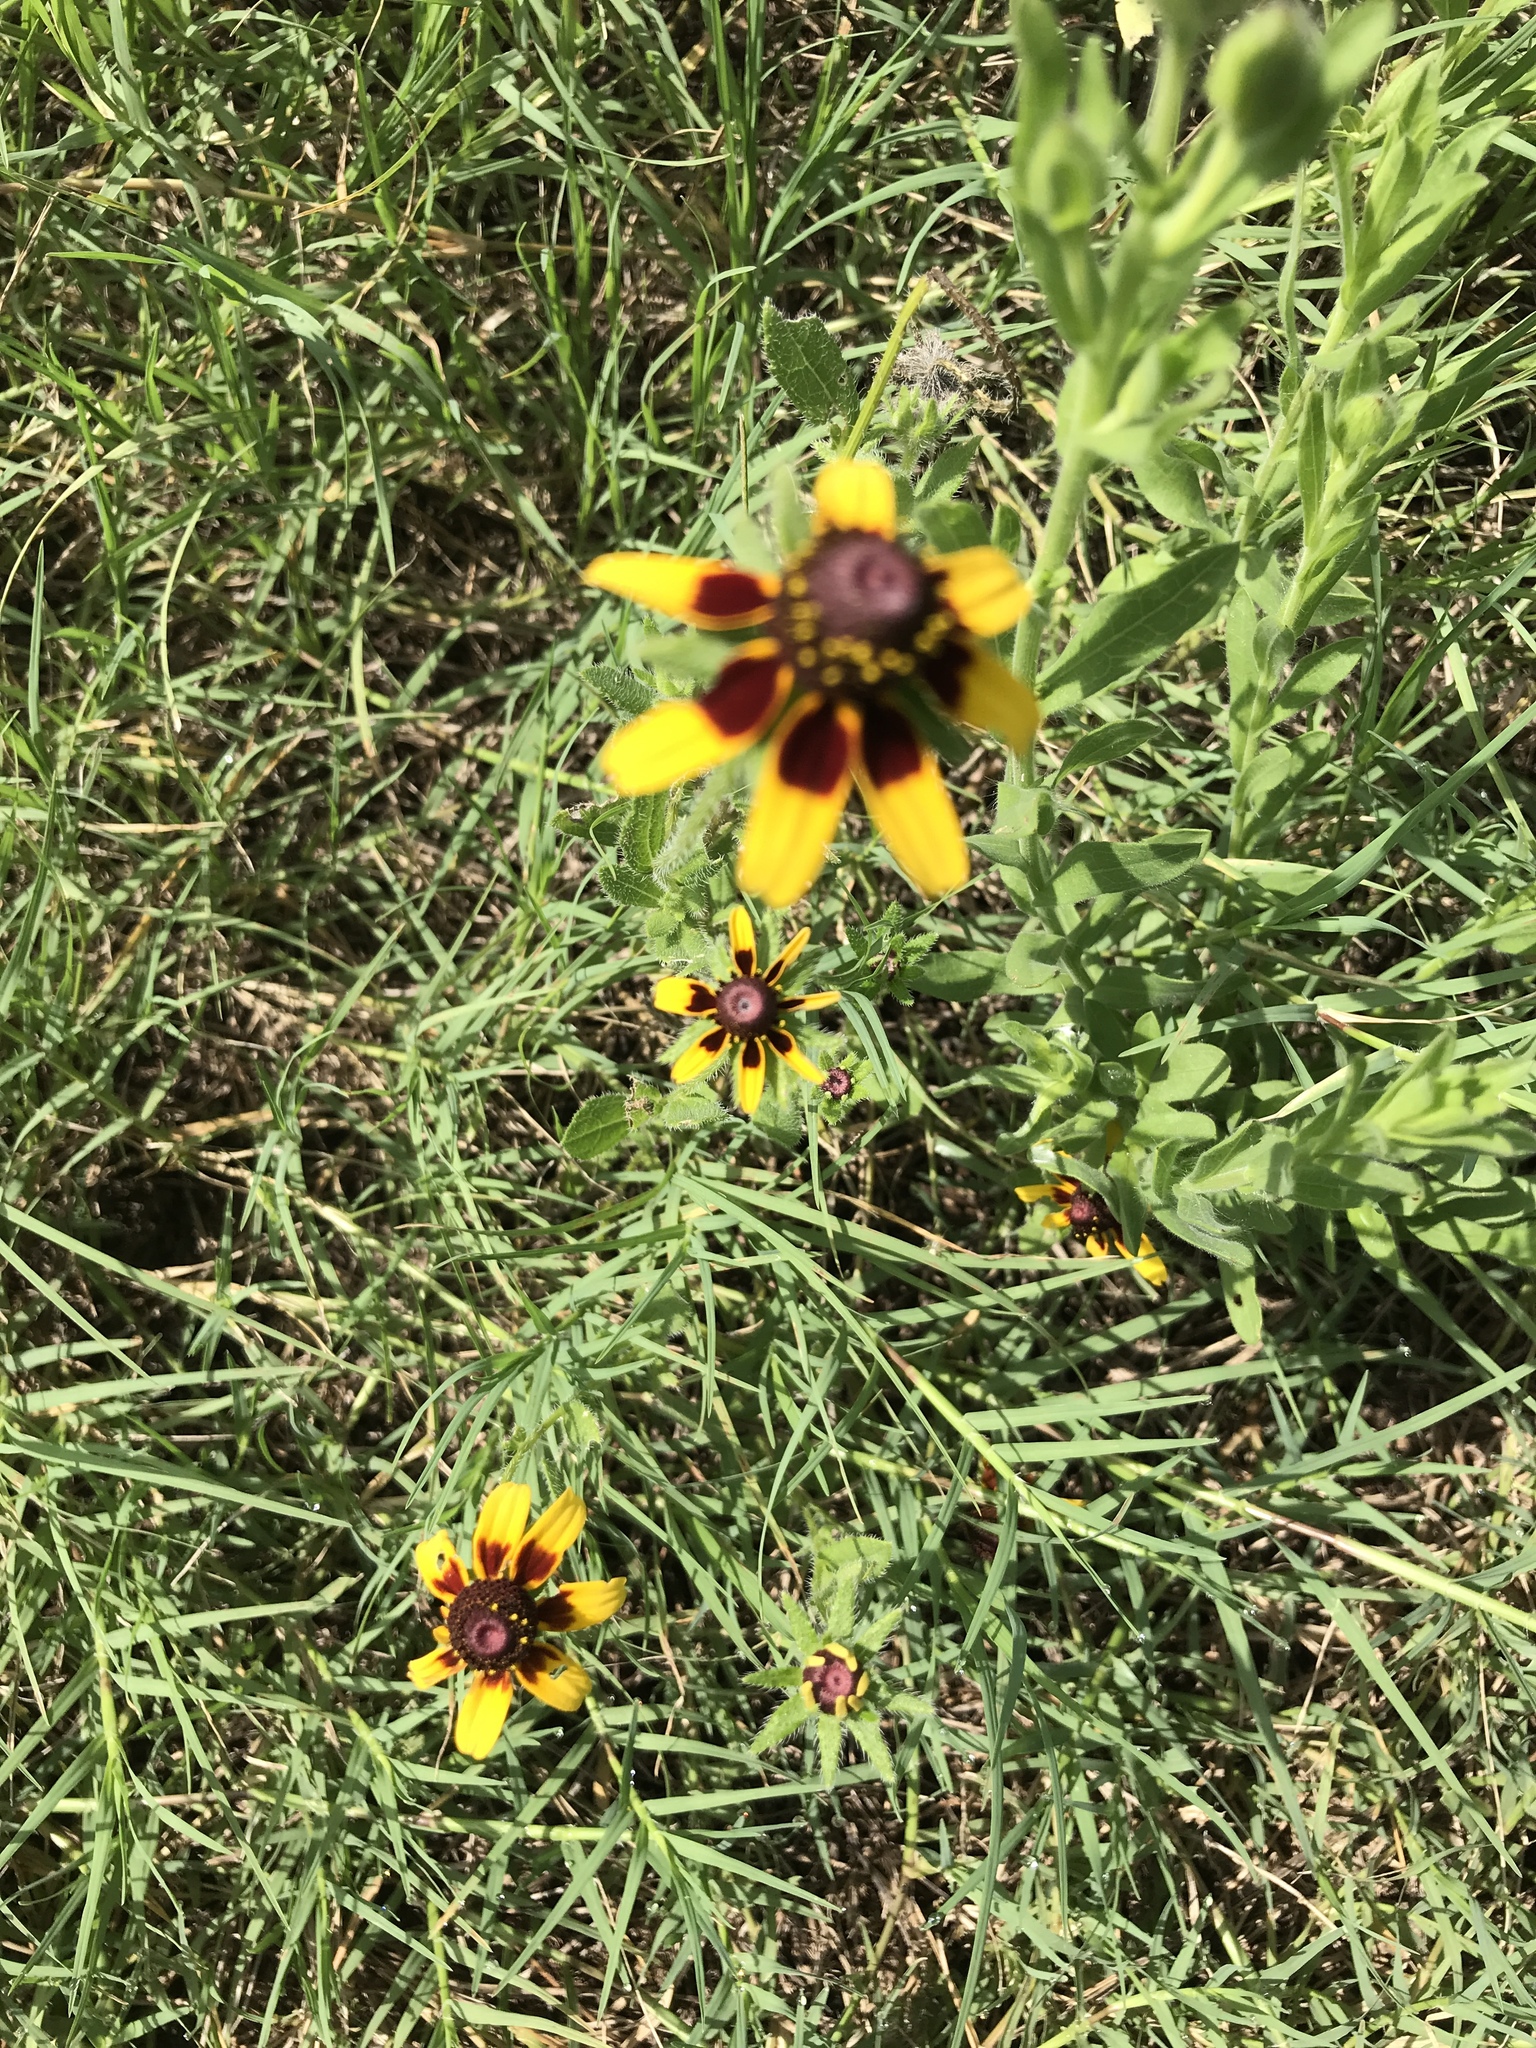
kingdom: Plantae
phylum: Tracheophyta
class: Magnoliopsida
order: Asterales
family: Asteraceae
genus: Rudbeckia
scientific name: Rudbeckia hirta
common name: Black-eyed-susan
